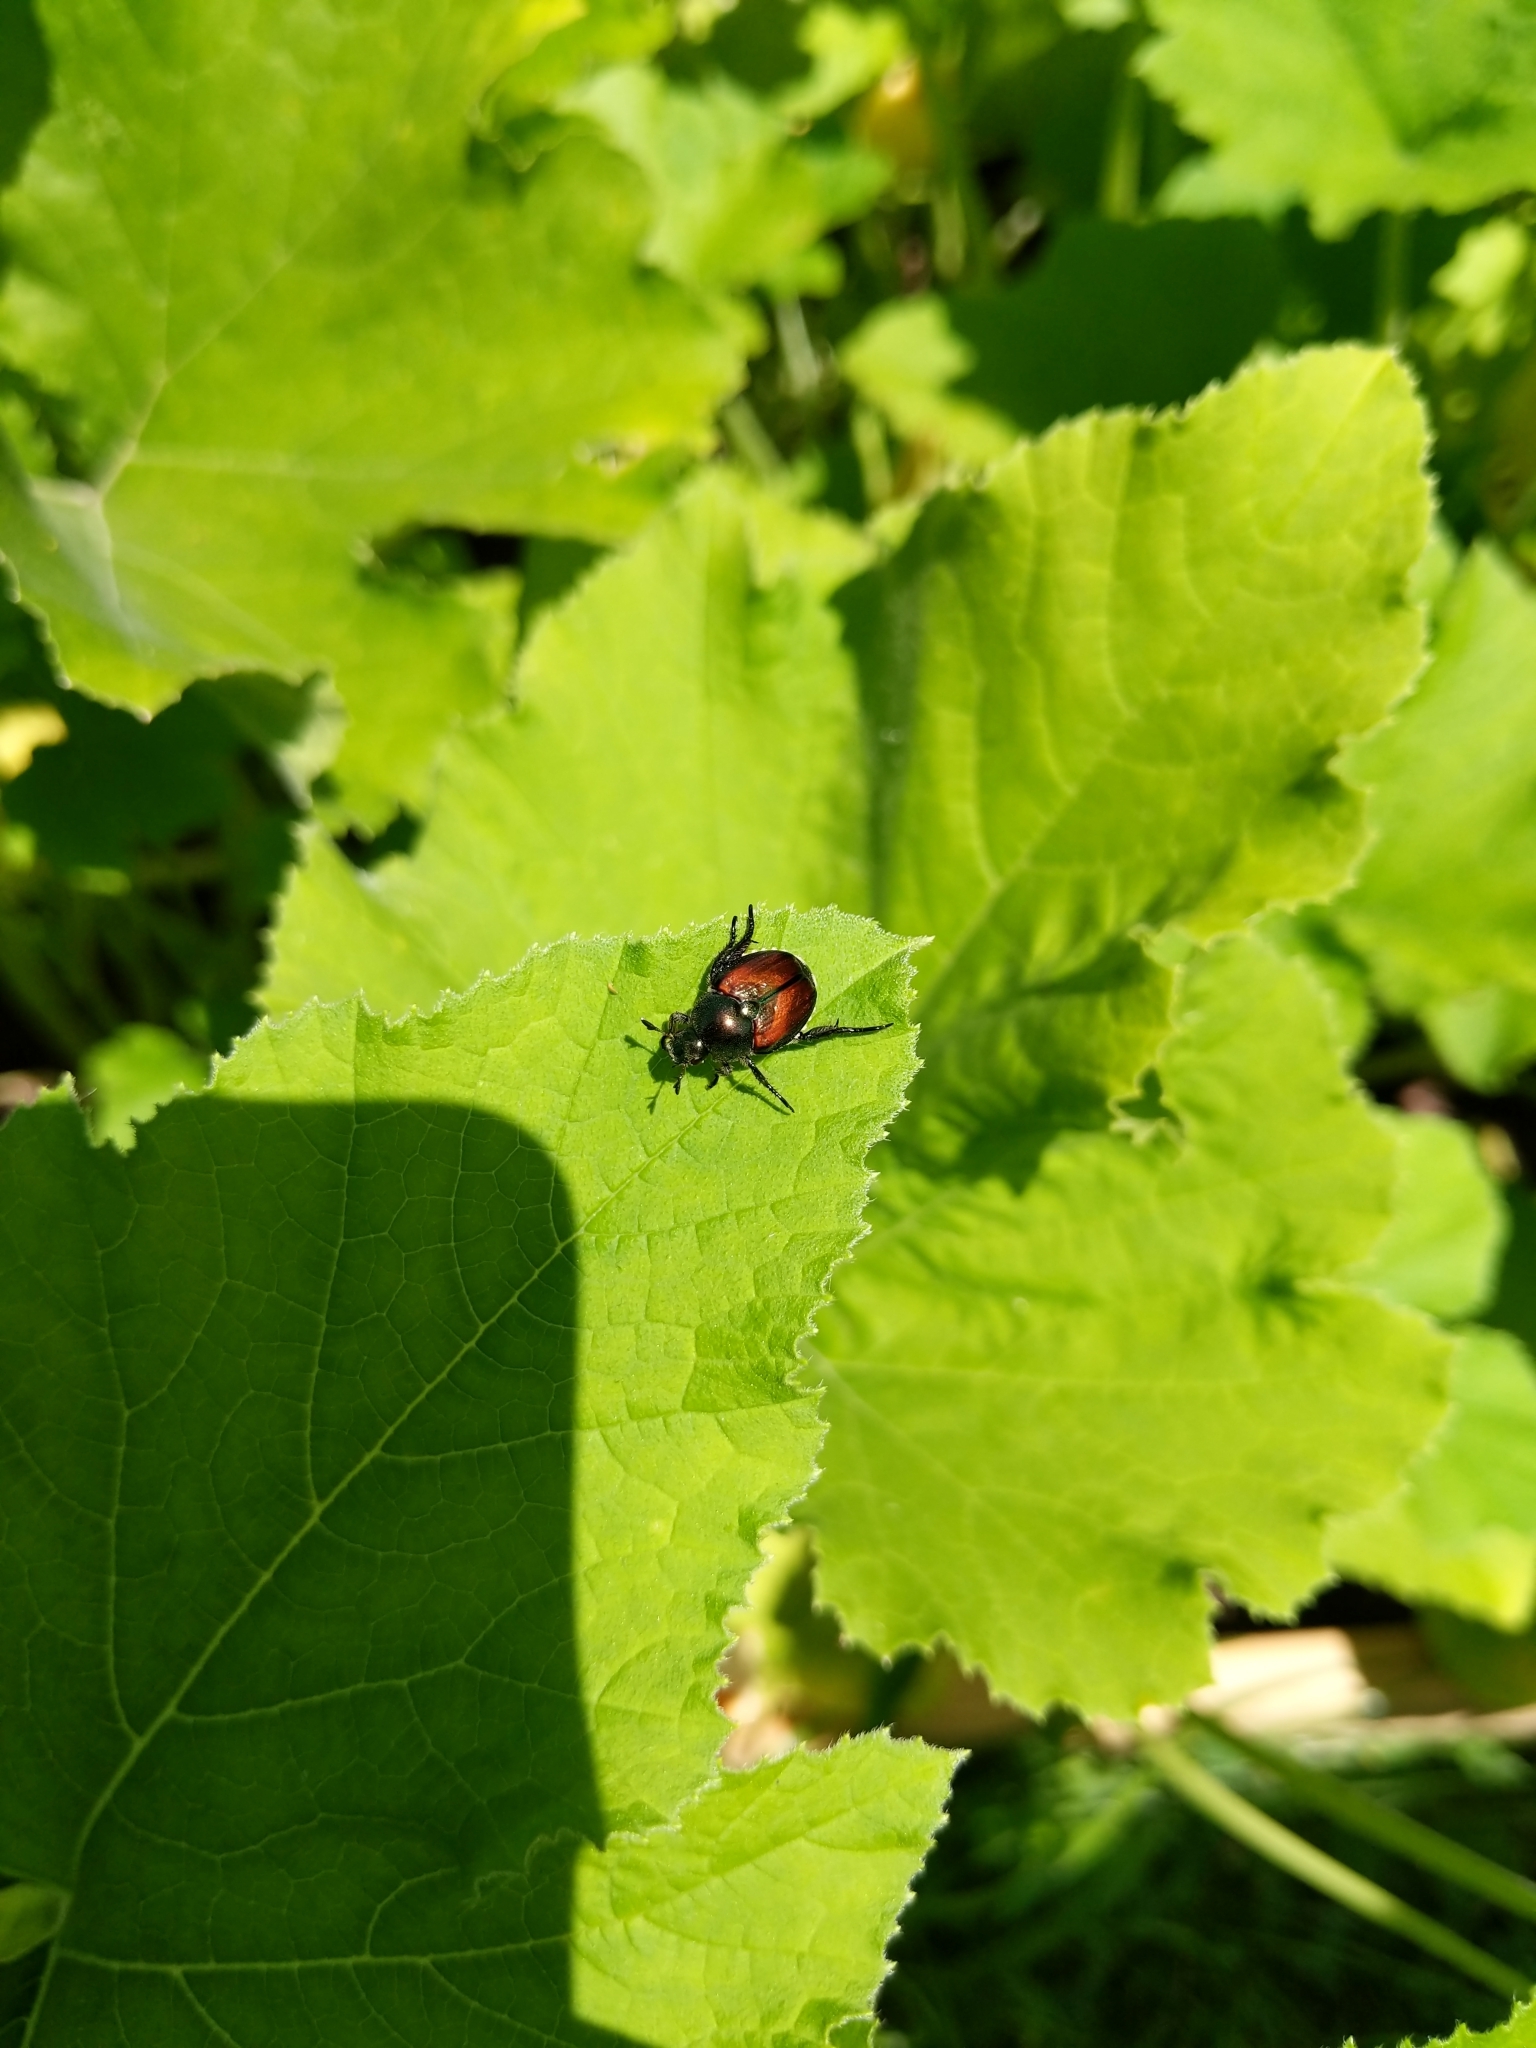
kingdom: Animalia
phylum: Arthropoda
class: Insecta
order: Coleoptera
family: Scarabaeidae
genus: Popillia
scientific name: Popillia japonica
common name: Japanese beetle
